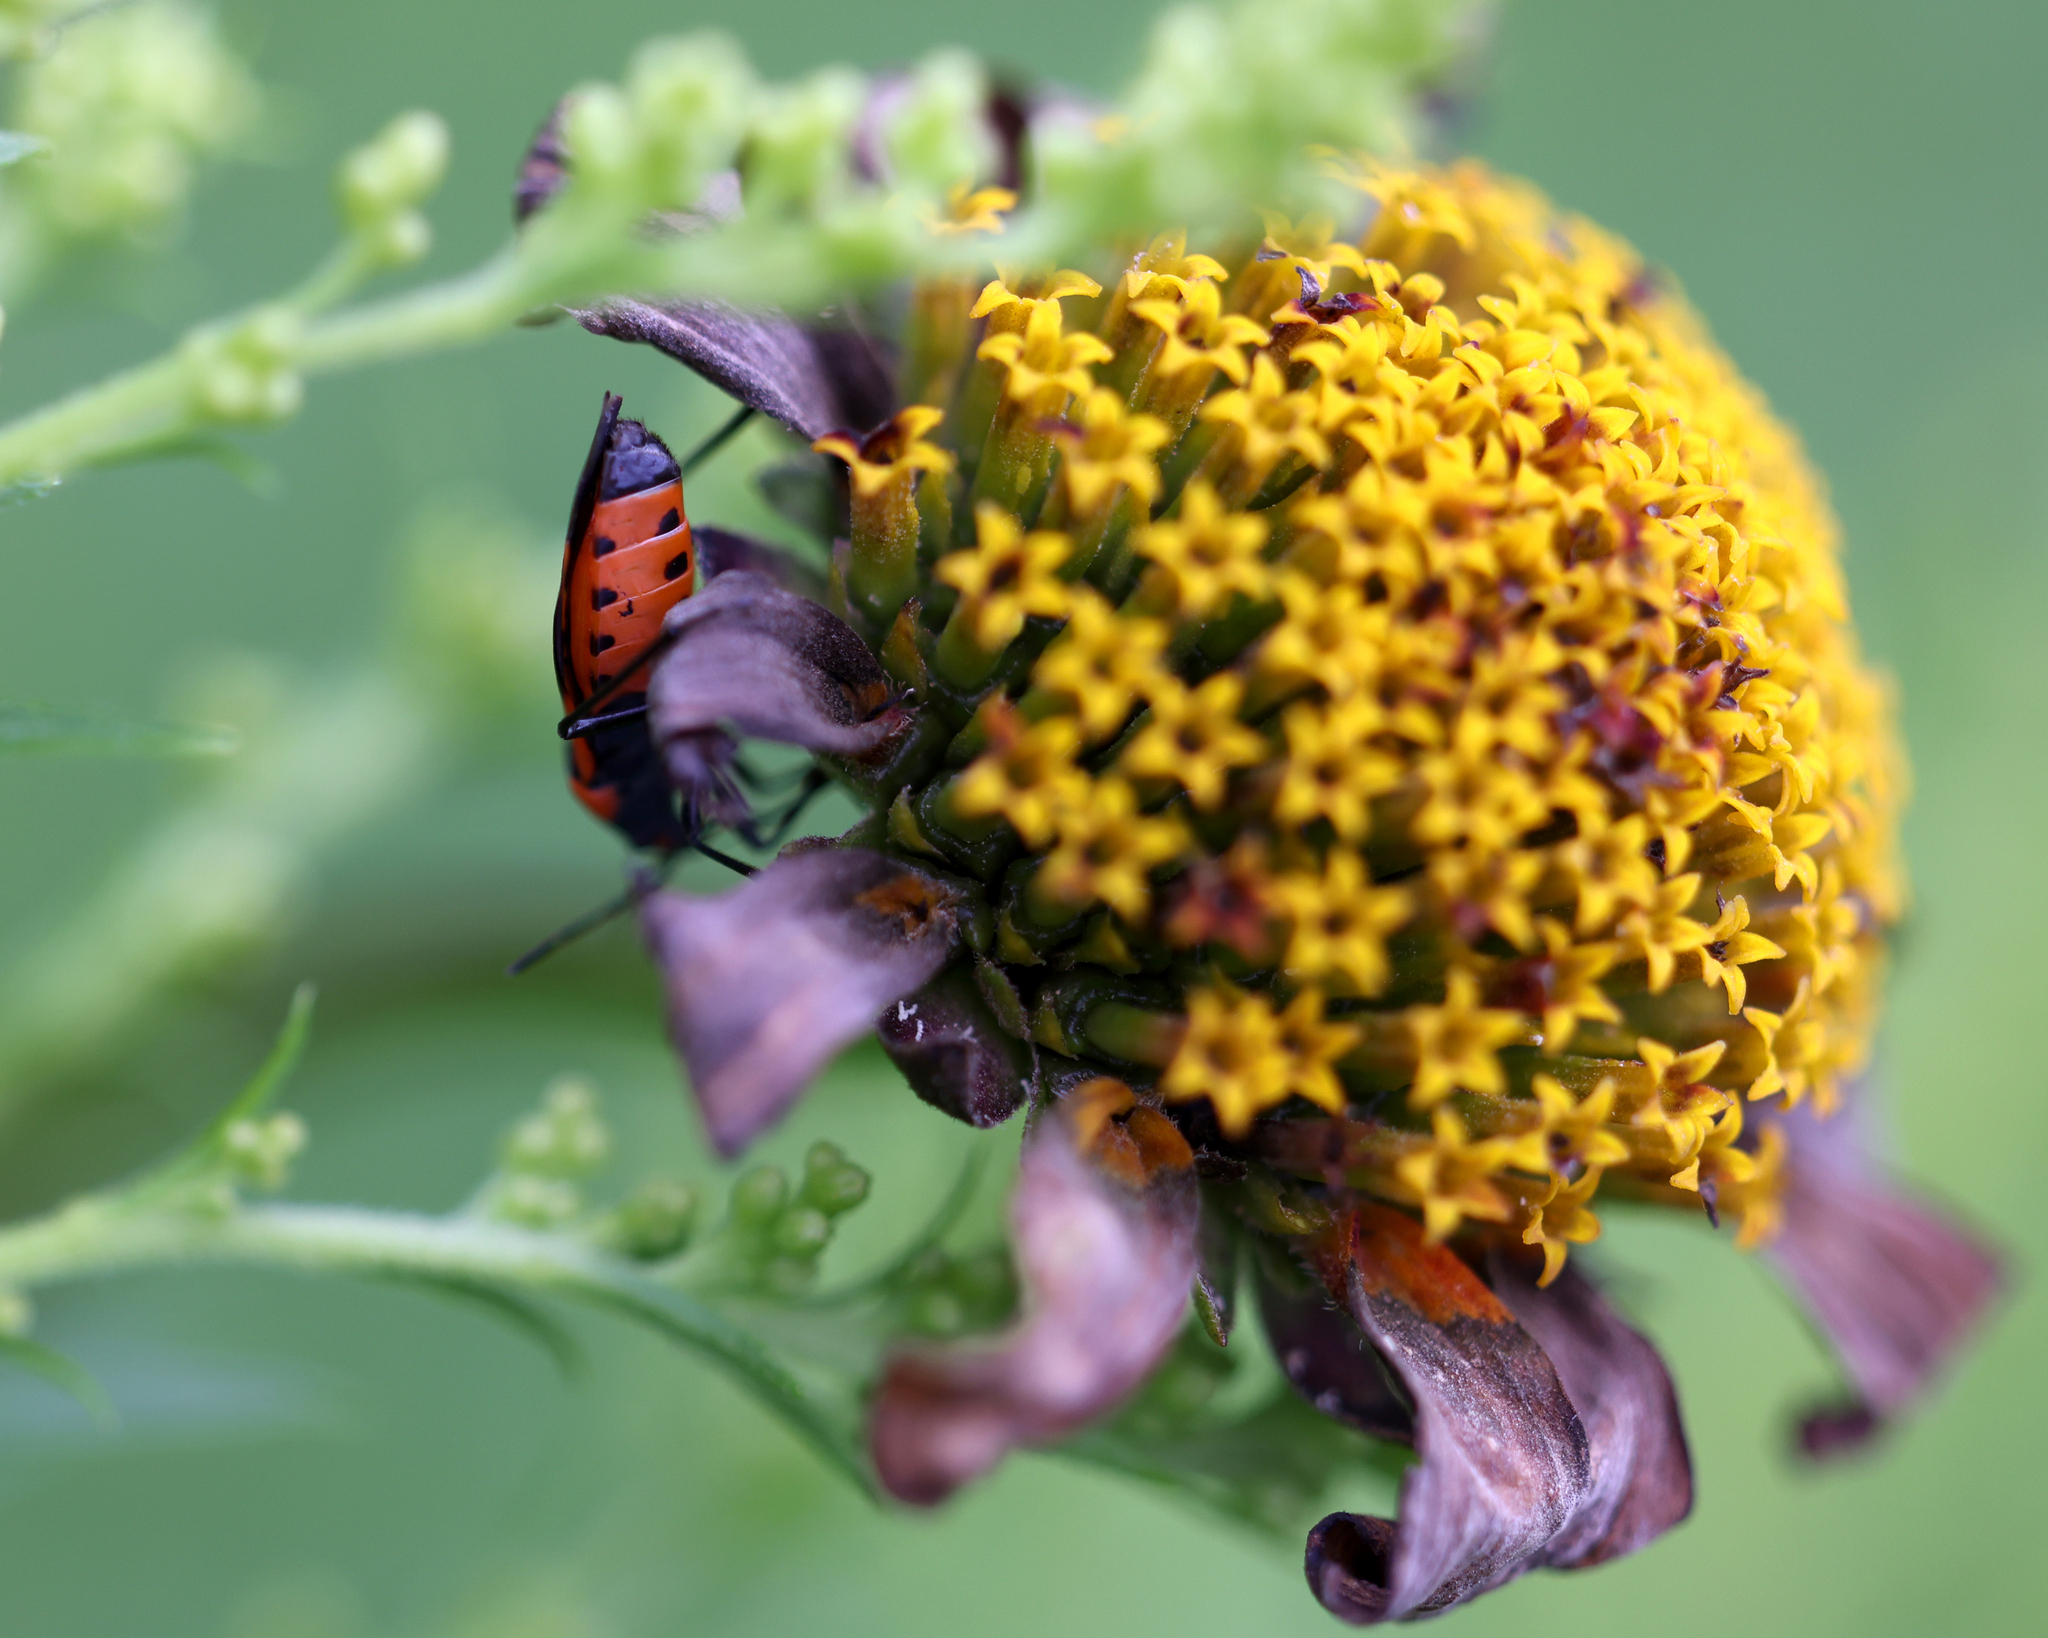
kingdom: Animalia
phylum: Arthropoda
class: Insecta
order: Hemiptera
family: Lygaeidae
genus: Lygaeus
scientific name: Lygaeus turcicus
